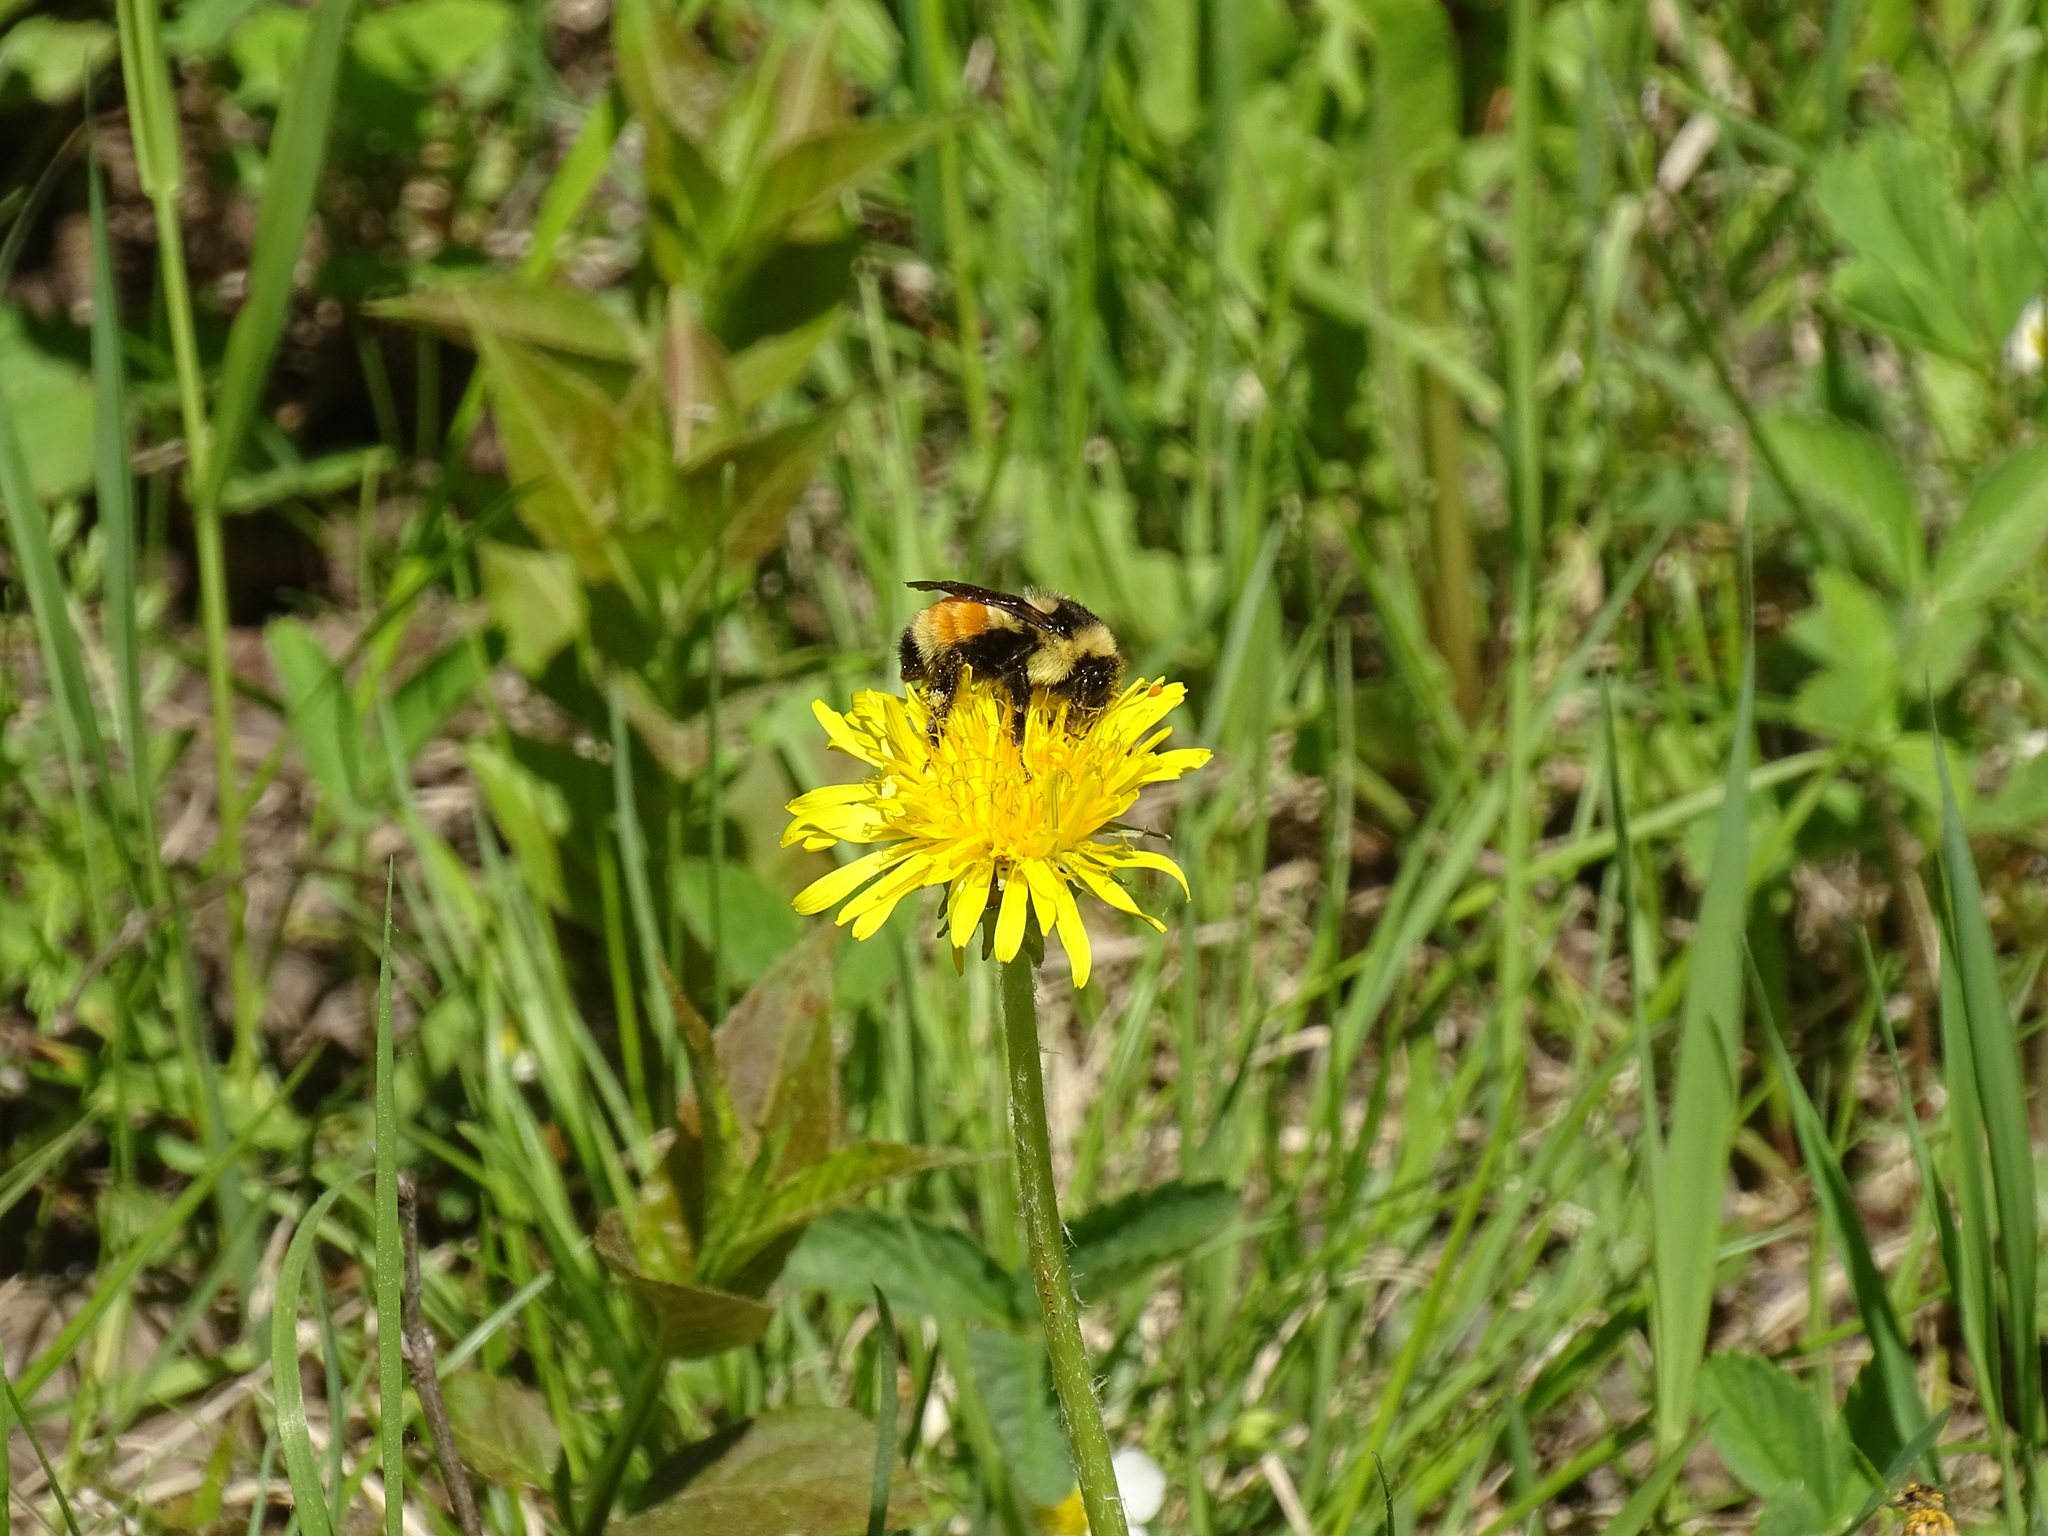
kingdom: Animalia
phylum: Arthropoda
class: Insecta
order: Hymenoptera
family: Apidae
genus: Bombus
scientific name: Bombus ternarius
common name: Tri-colored bumble bee
